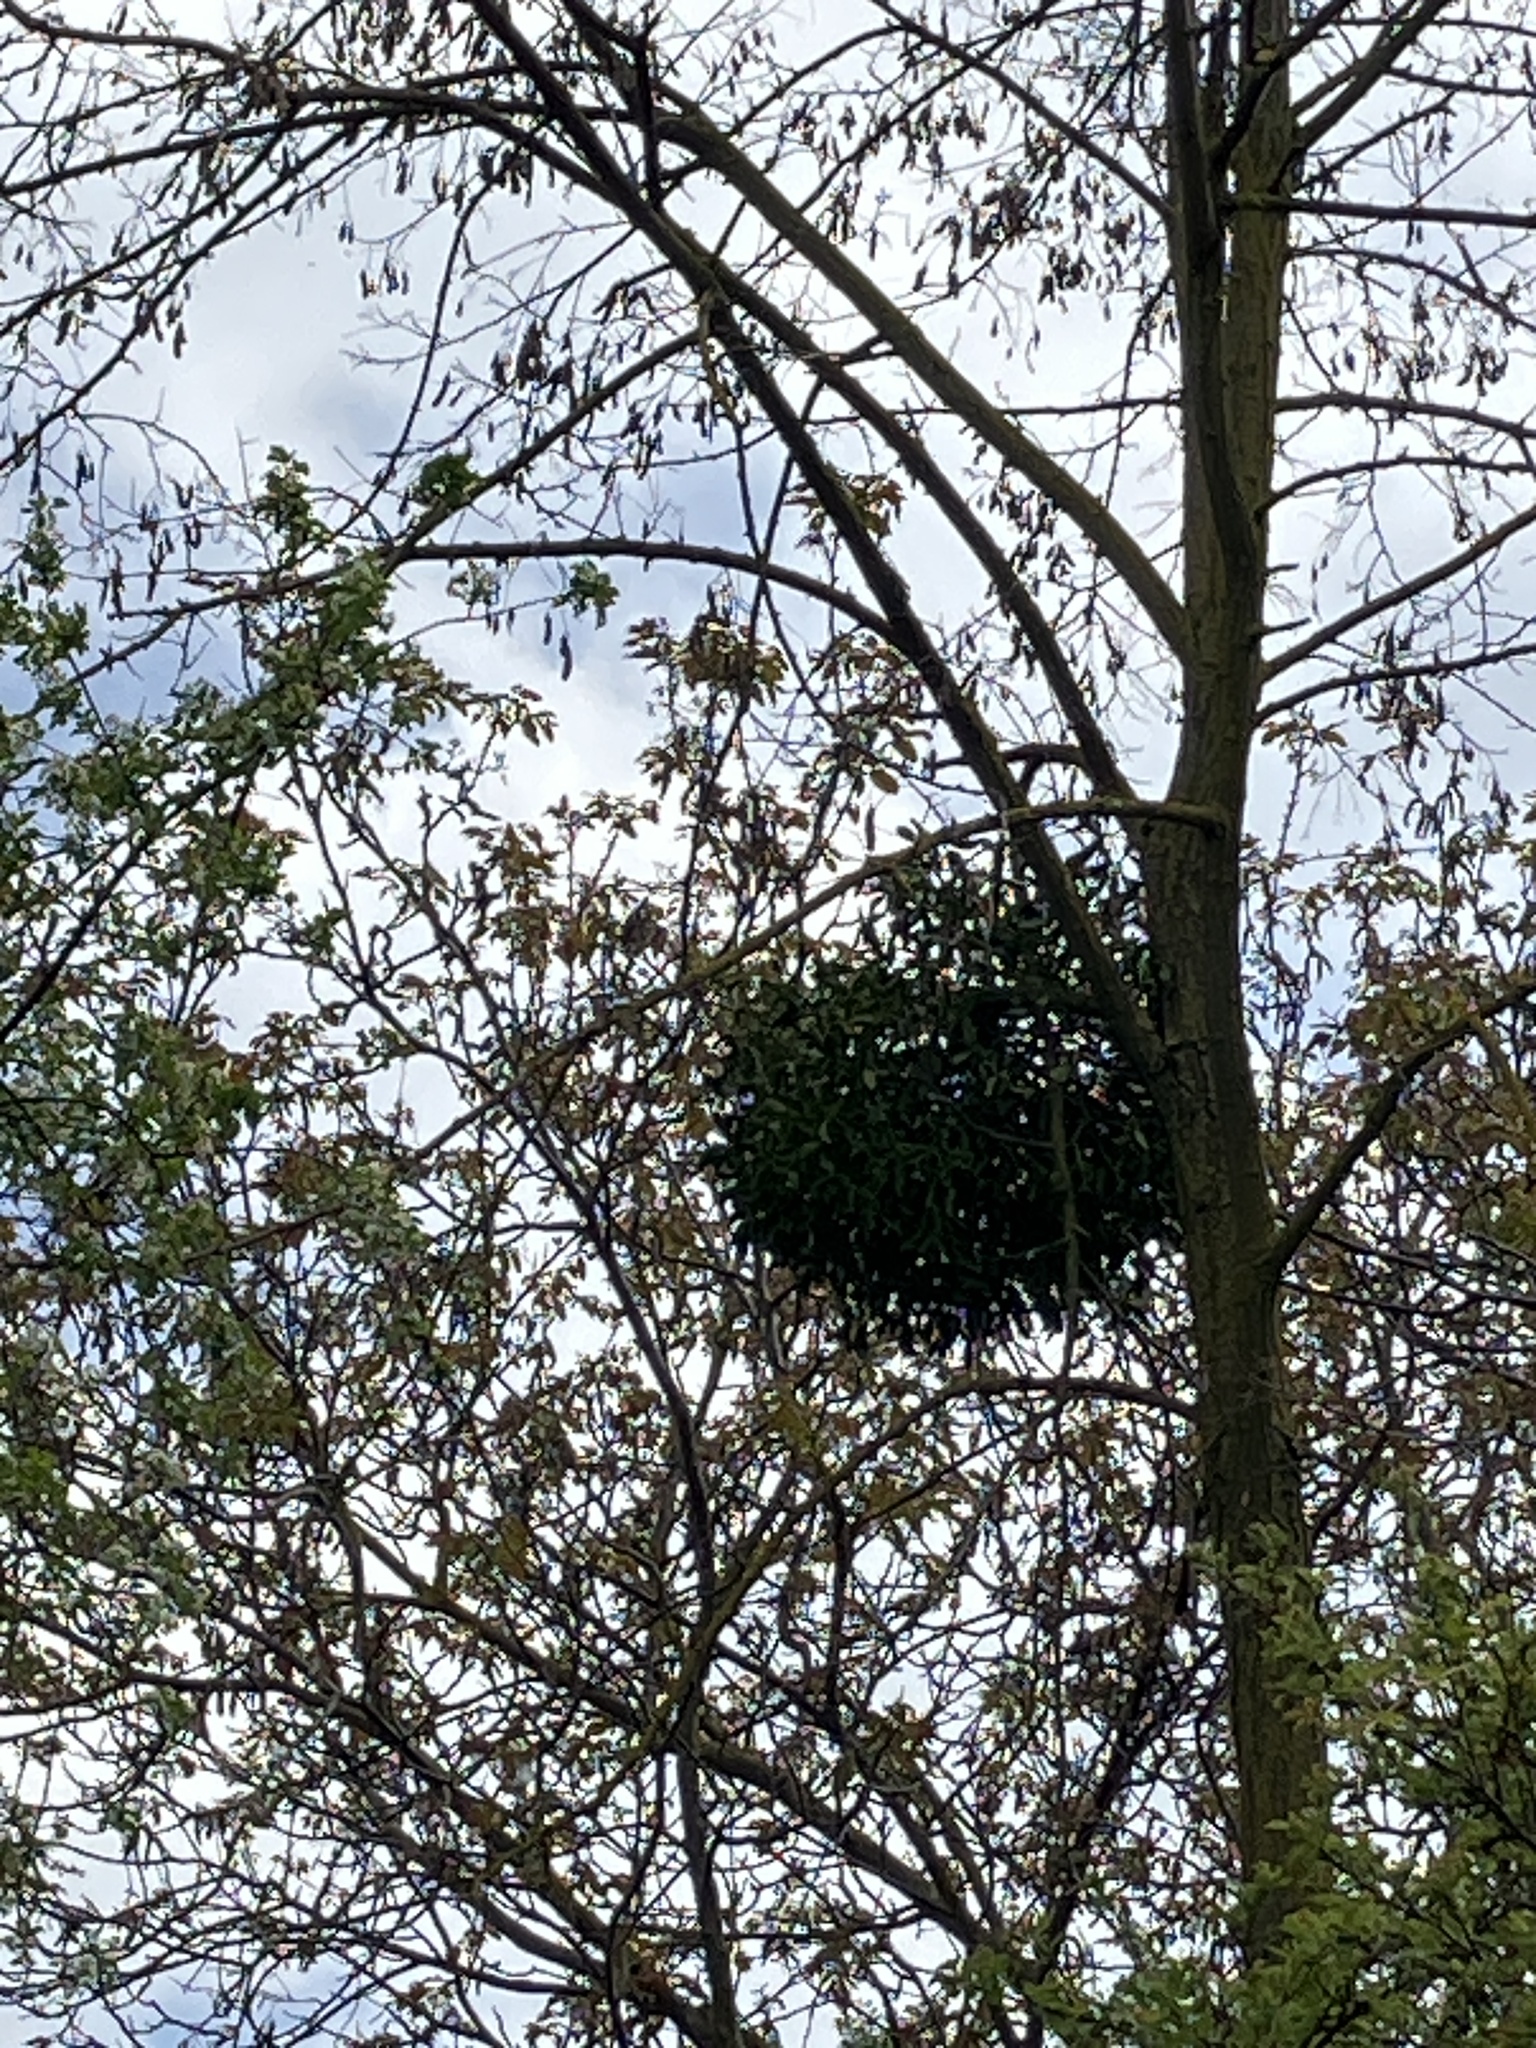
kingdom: Plantae
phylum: Tracheophyta
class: Magnoliopsida
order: Santalales
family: Viscaceae
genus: Viscum
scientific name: Viscum album
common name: Mistletoe
